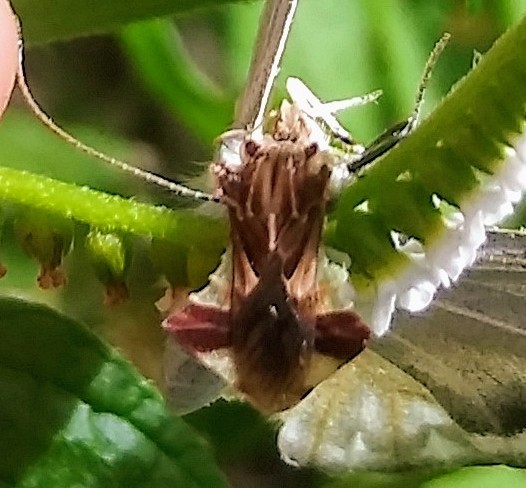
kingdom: Animalia
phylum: Arthropoda
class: Insecta
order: Hemiptera
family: Reduviidae
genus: Phymata
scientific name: Phymata fasciata
